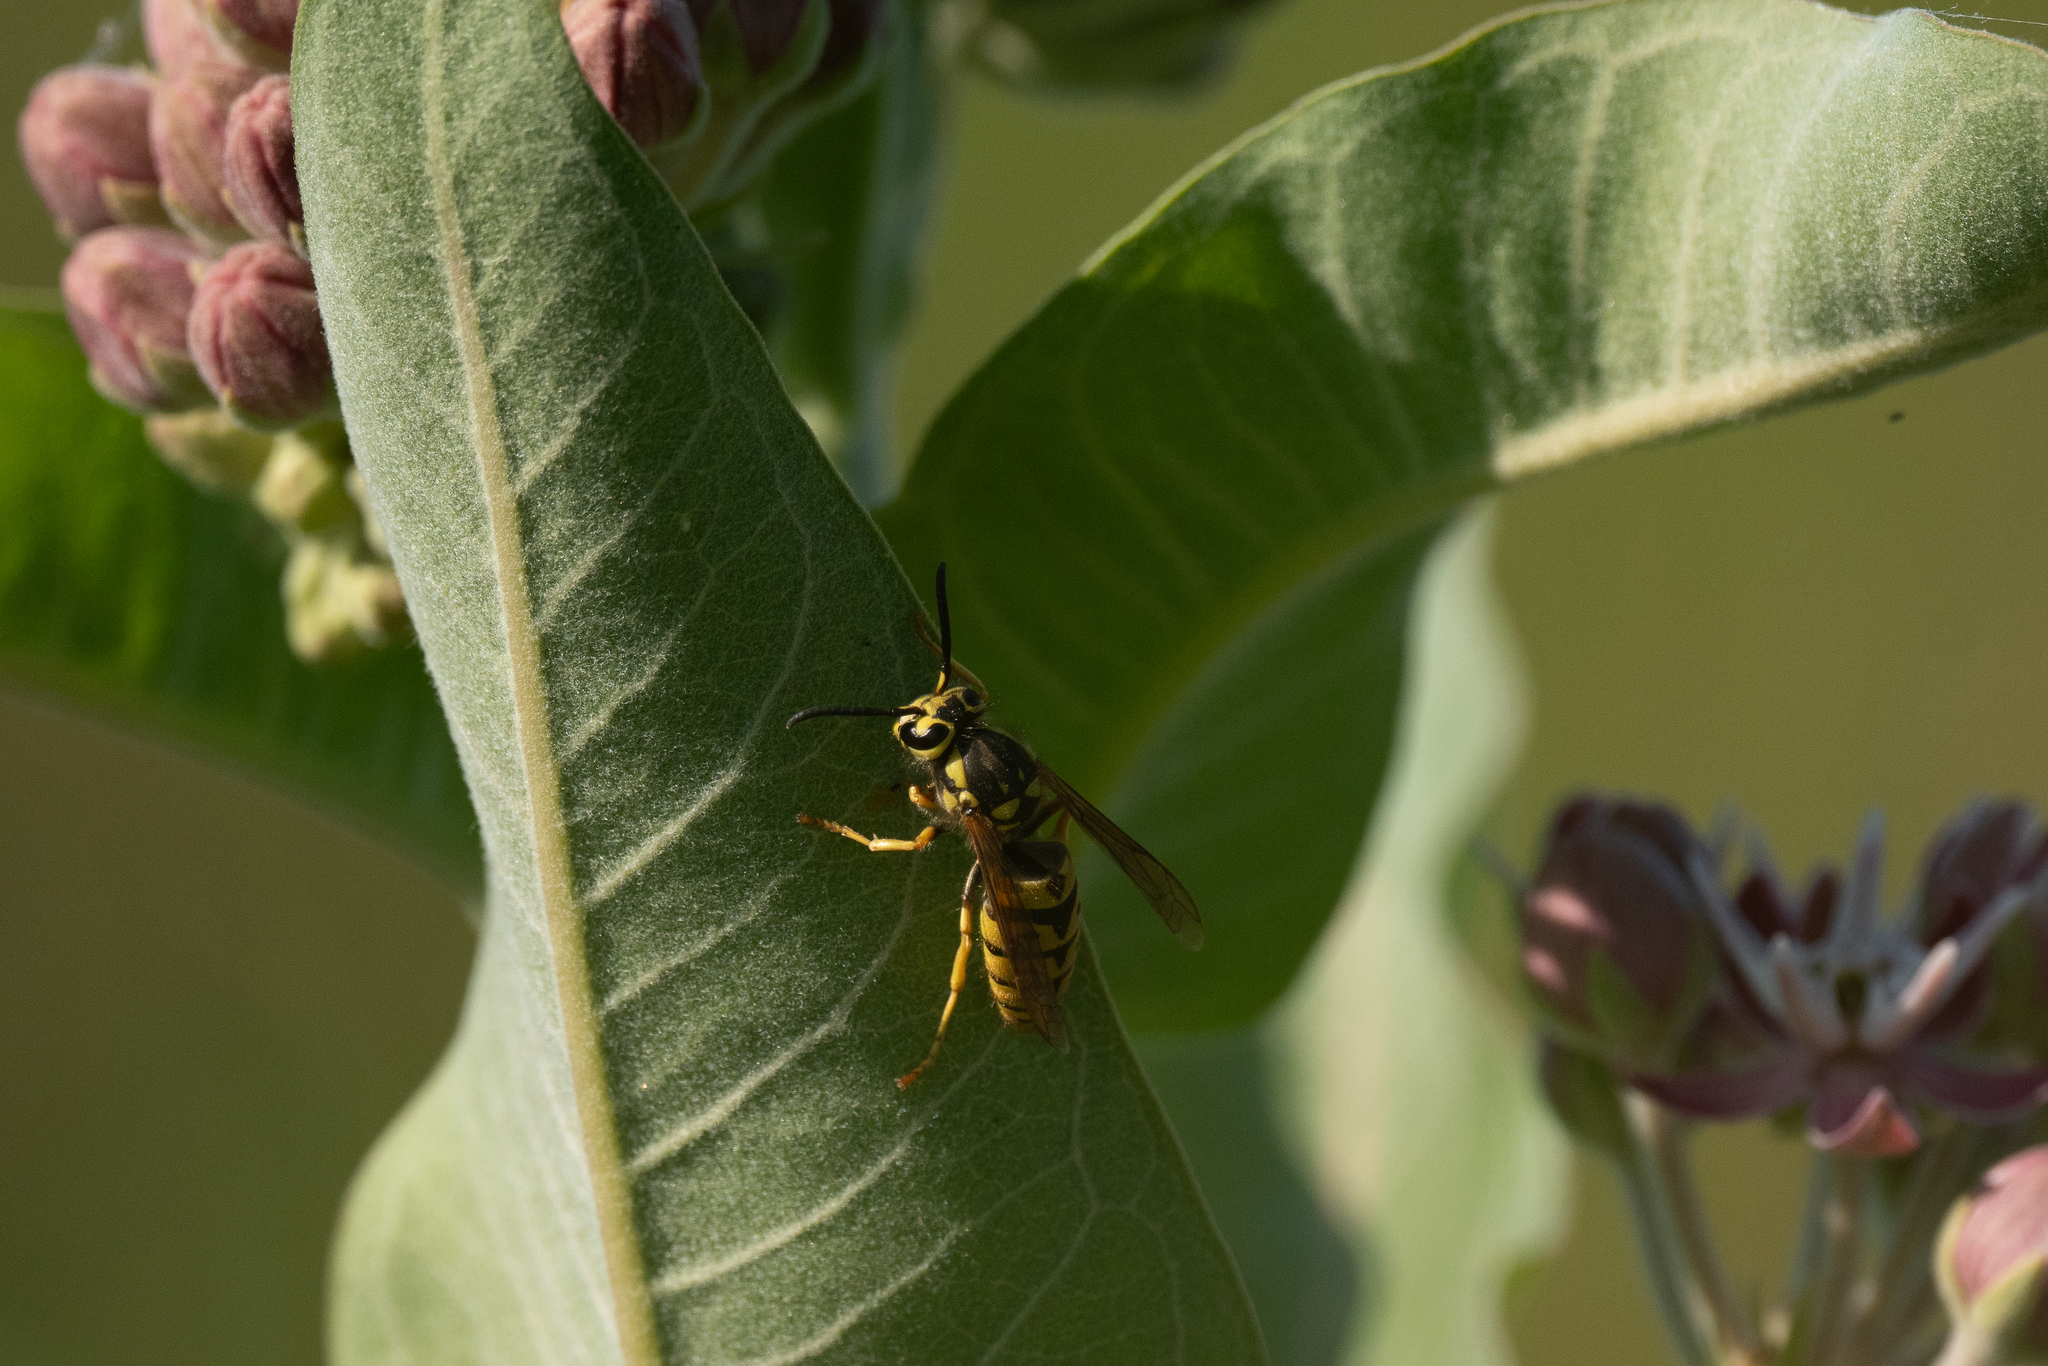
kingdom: Animalia
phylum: Arthropoda
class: Insecta
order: Hymenoptera
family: Vespidae
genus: Vespula
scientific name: Vespula pensylvanica
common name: Western yellowjacket
